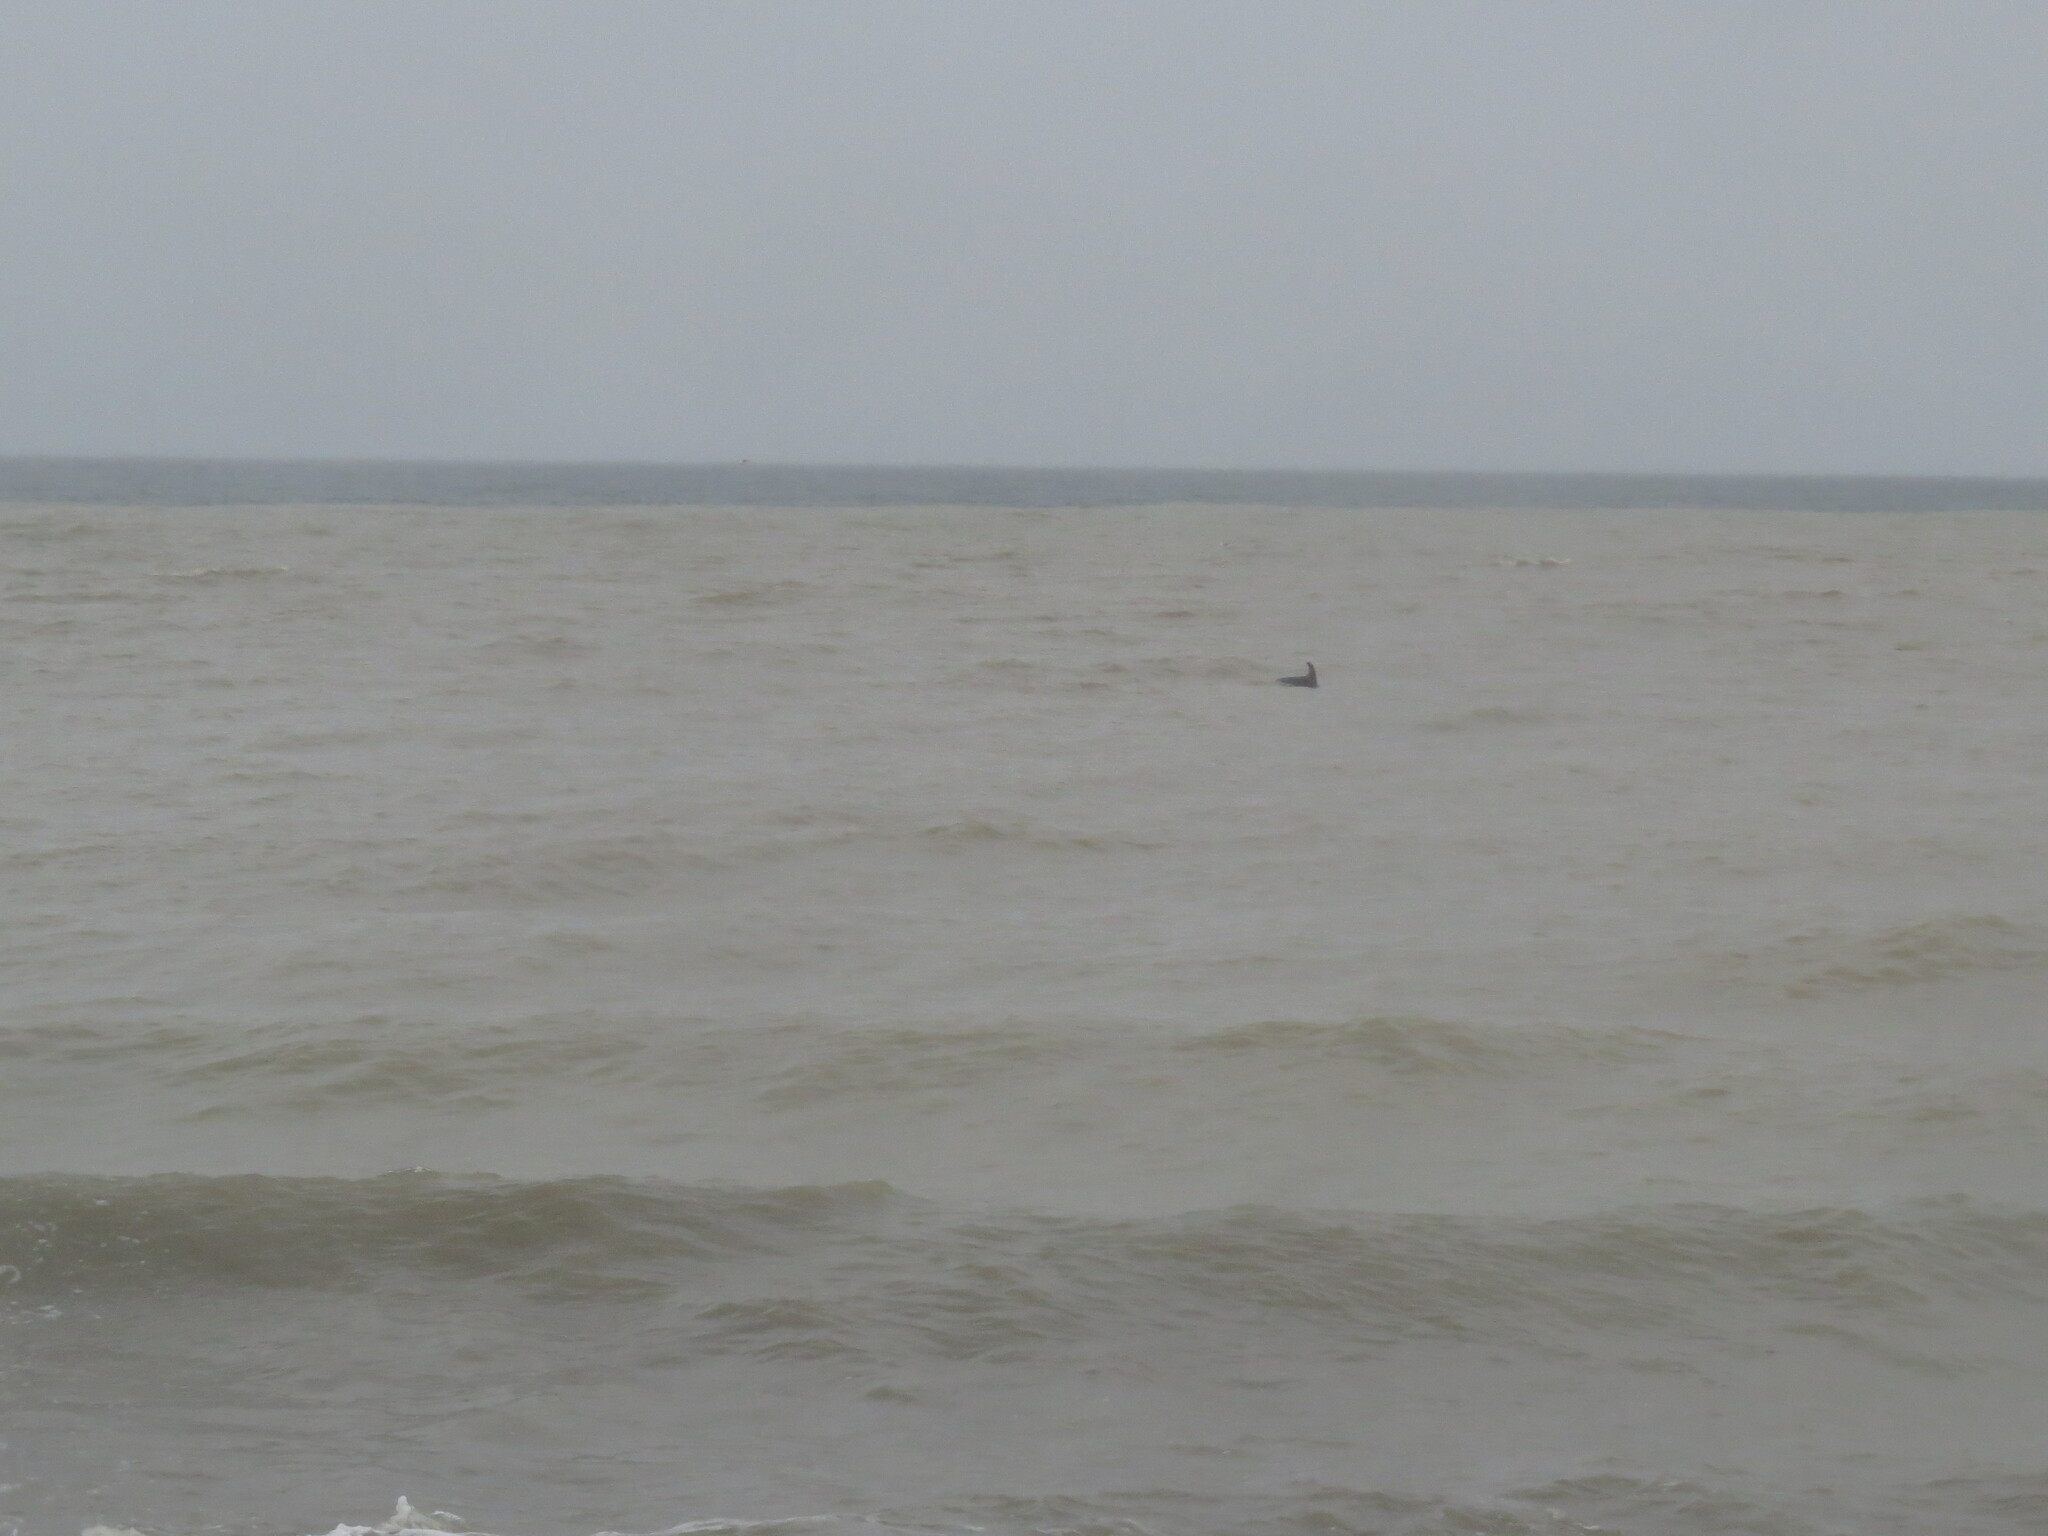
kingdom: Animalia
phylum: Chordata
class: Mammalia
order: Cetacea
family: Delphinidae
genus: Tursiops
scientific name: Tursiops truncatus
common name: Bottlenose dolphin
